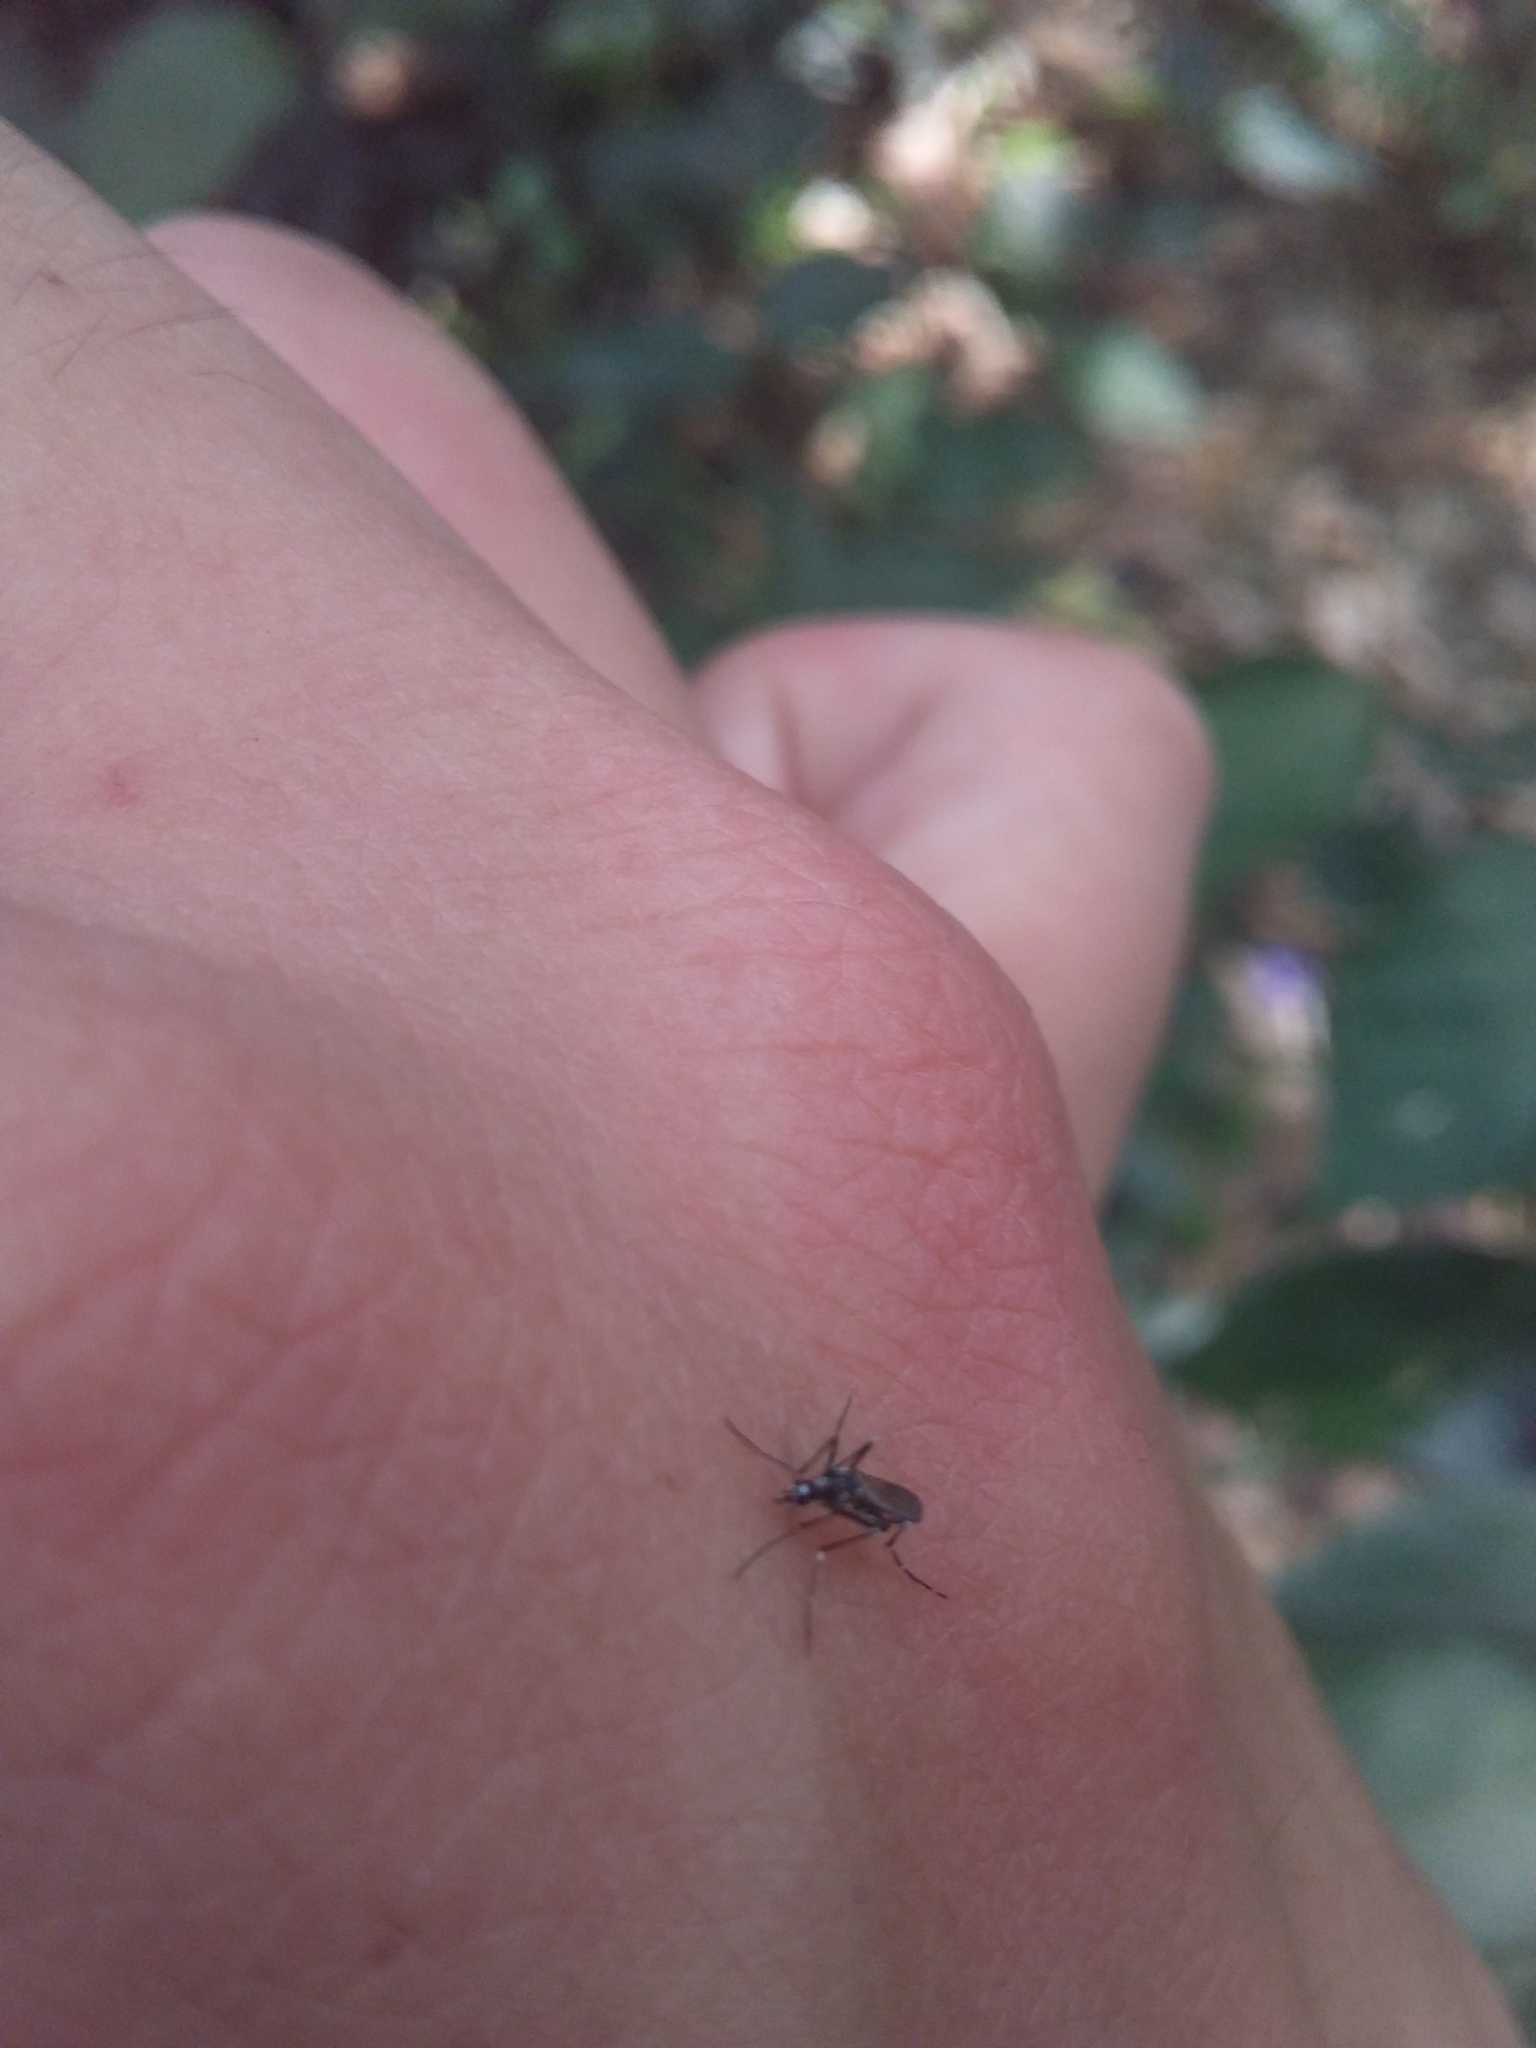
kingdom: Animalia
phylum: Arthropoda
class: Insecta
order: Diptera
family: Culicidae
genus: Aedes
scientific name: Aedes albopictus
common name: Tiger mosquito
